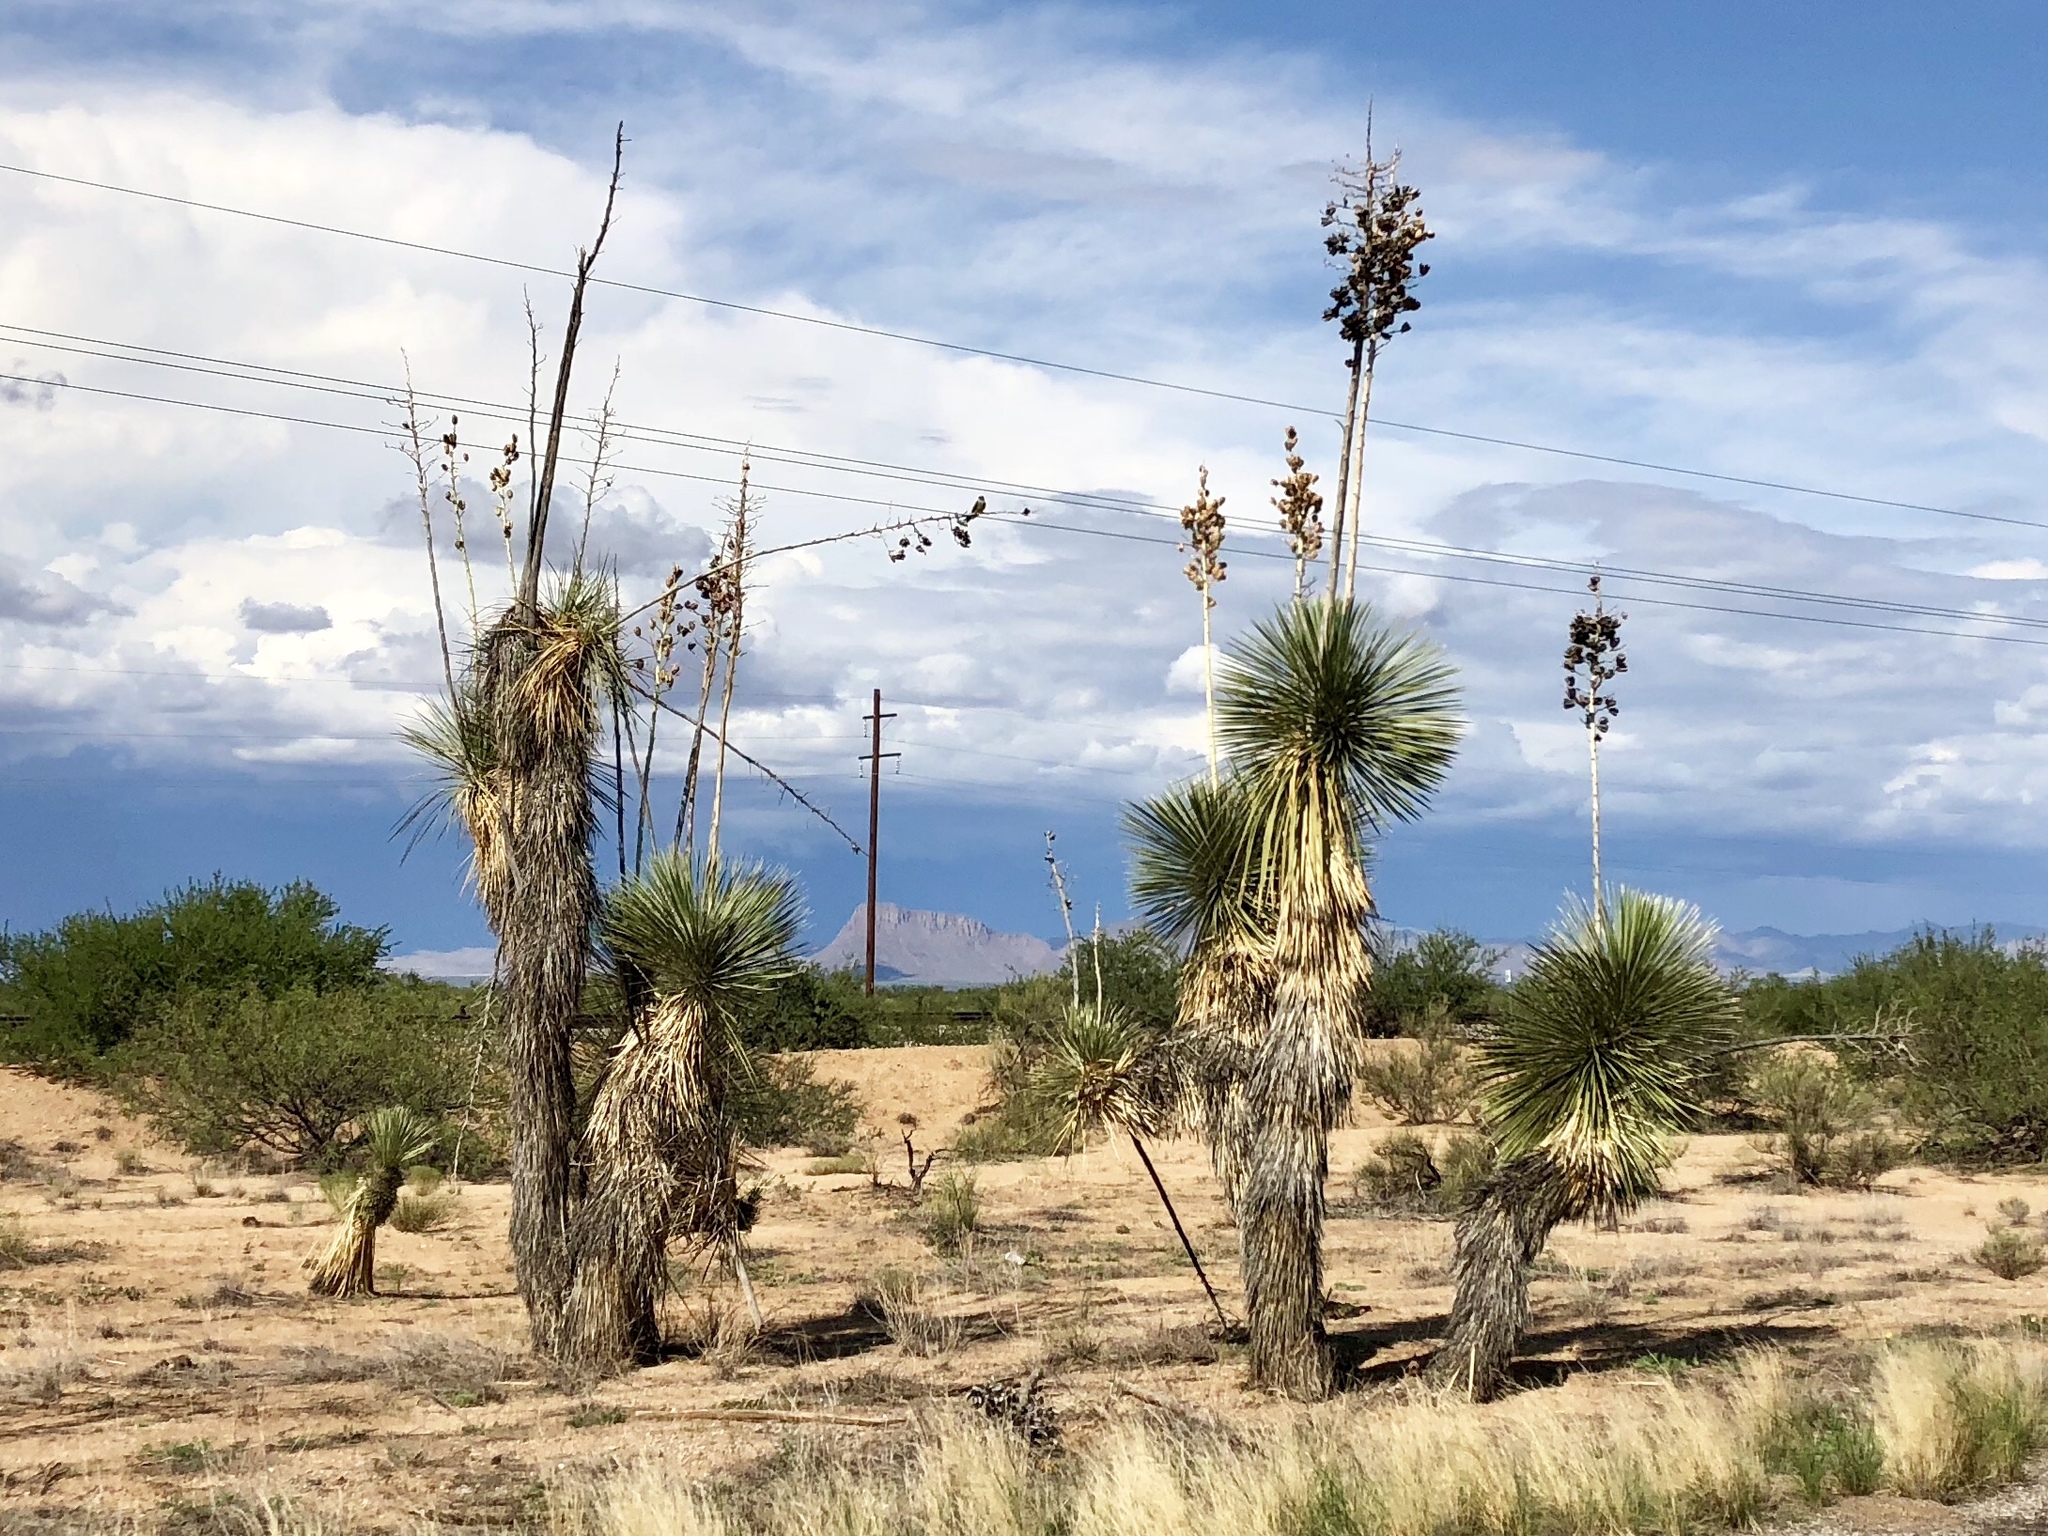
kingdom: Plantae
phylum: Tracheophyta
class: Liliopsida
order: Asparagales
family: Asparagaceae
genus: Yucca
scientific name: Yucca elata
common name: Palmella
